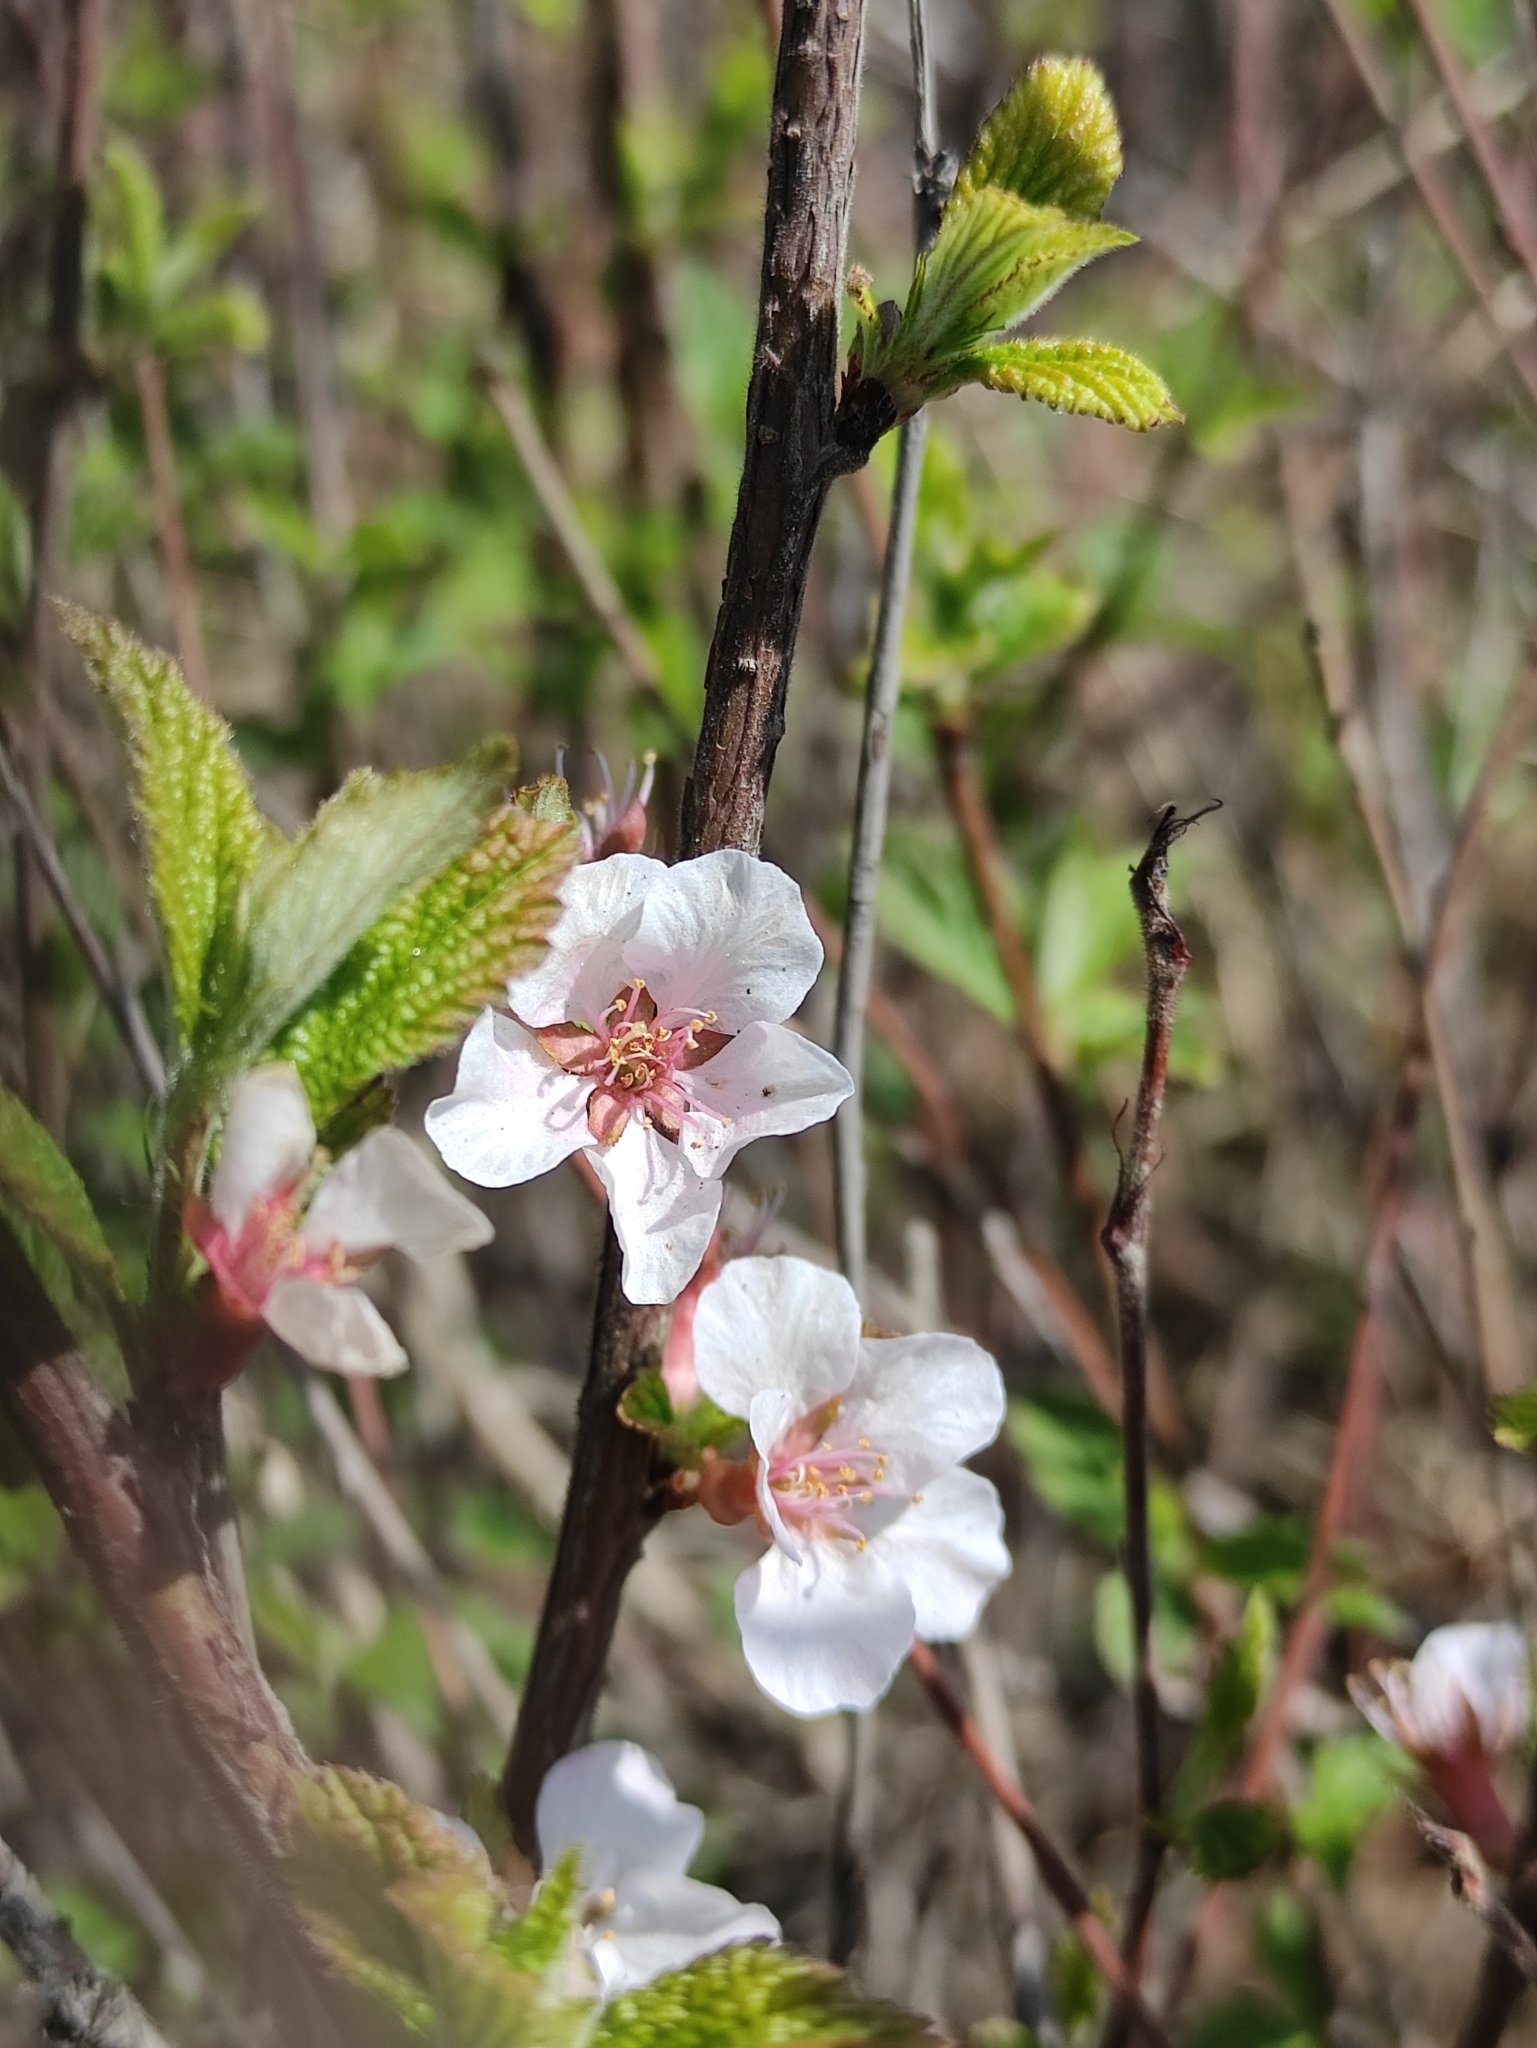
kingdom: Plantae
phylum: Tracheophyta
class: Magnoliopsida
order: Rosales
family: Rosaceae
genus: Prunus
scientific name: Prunus tomentosa
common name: Nanking cherry
